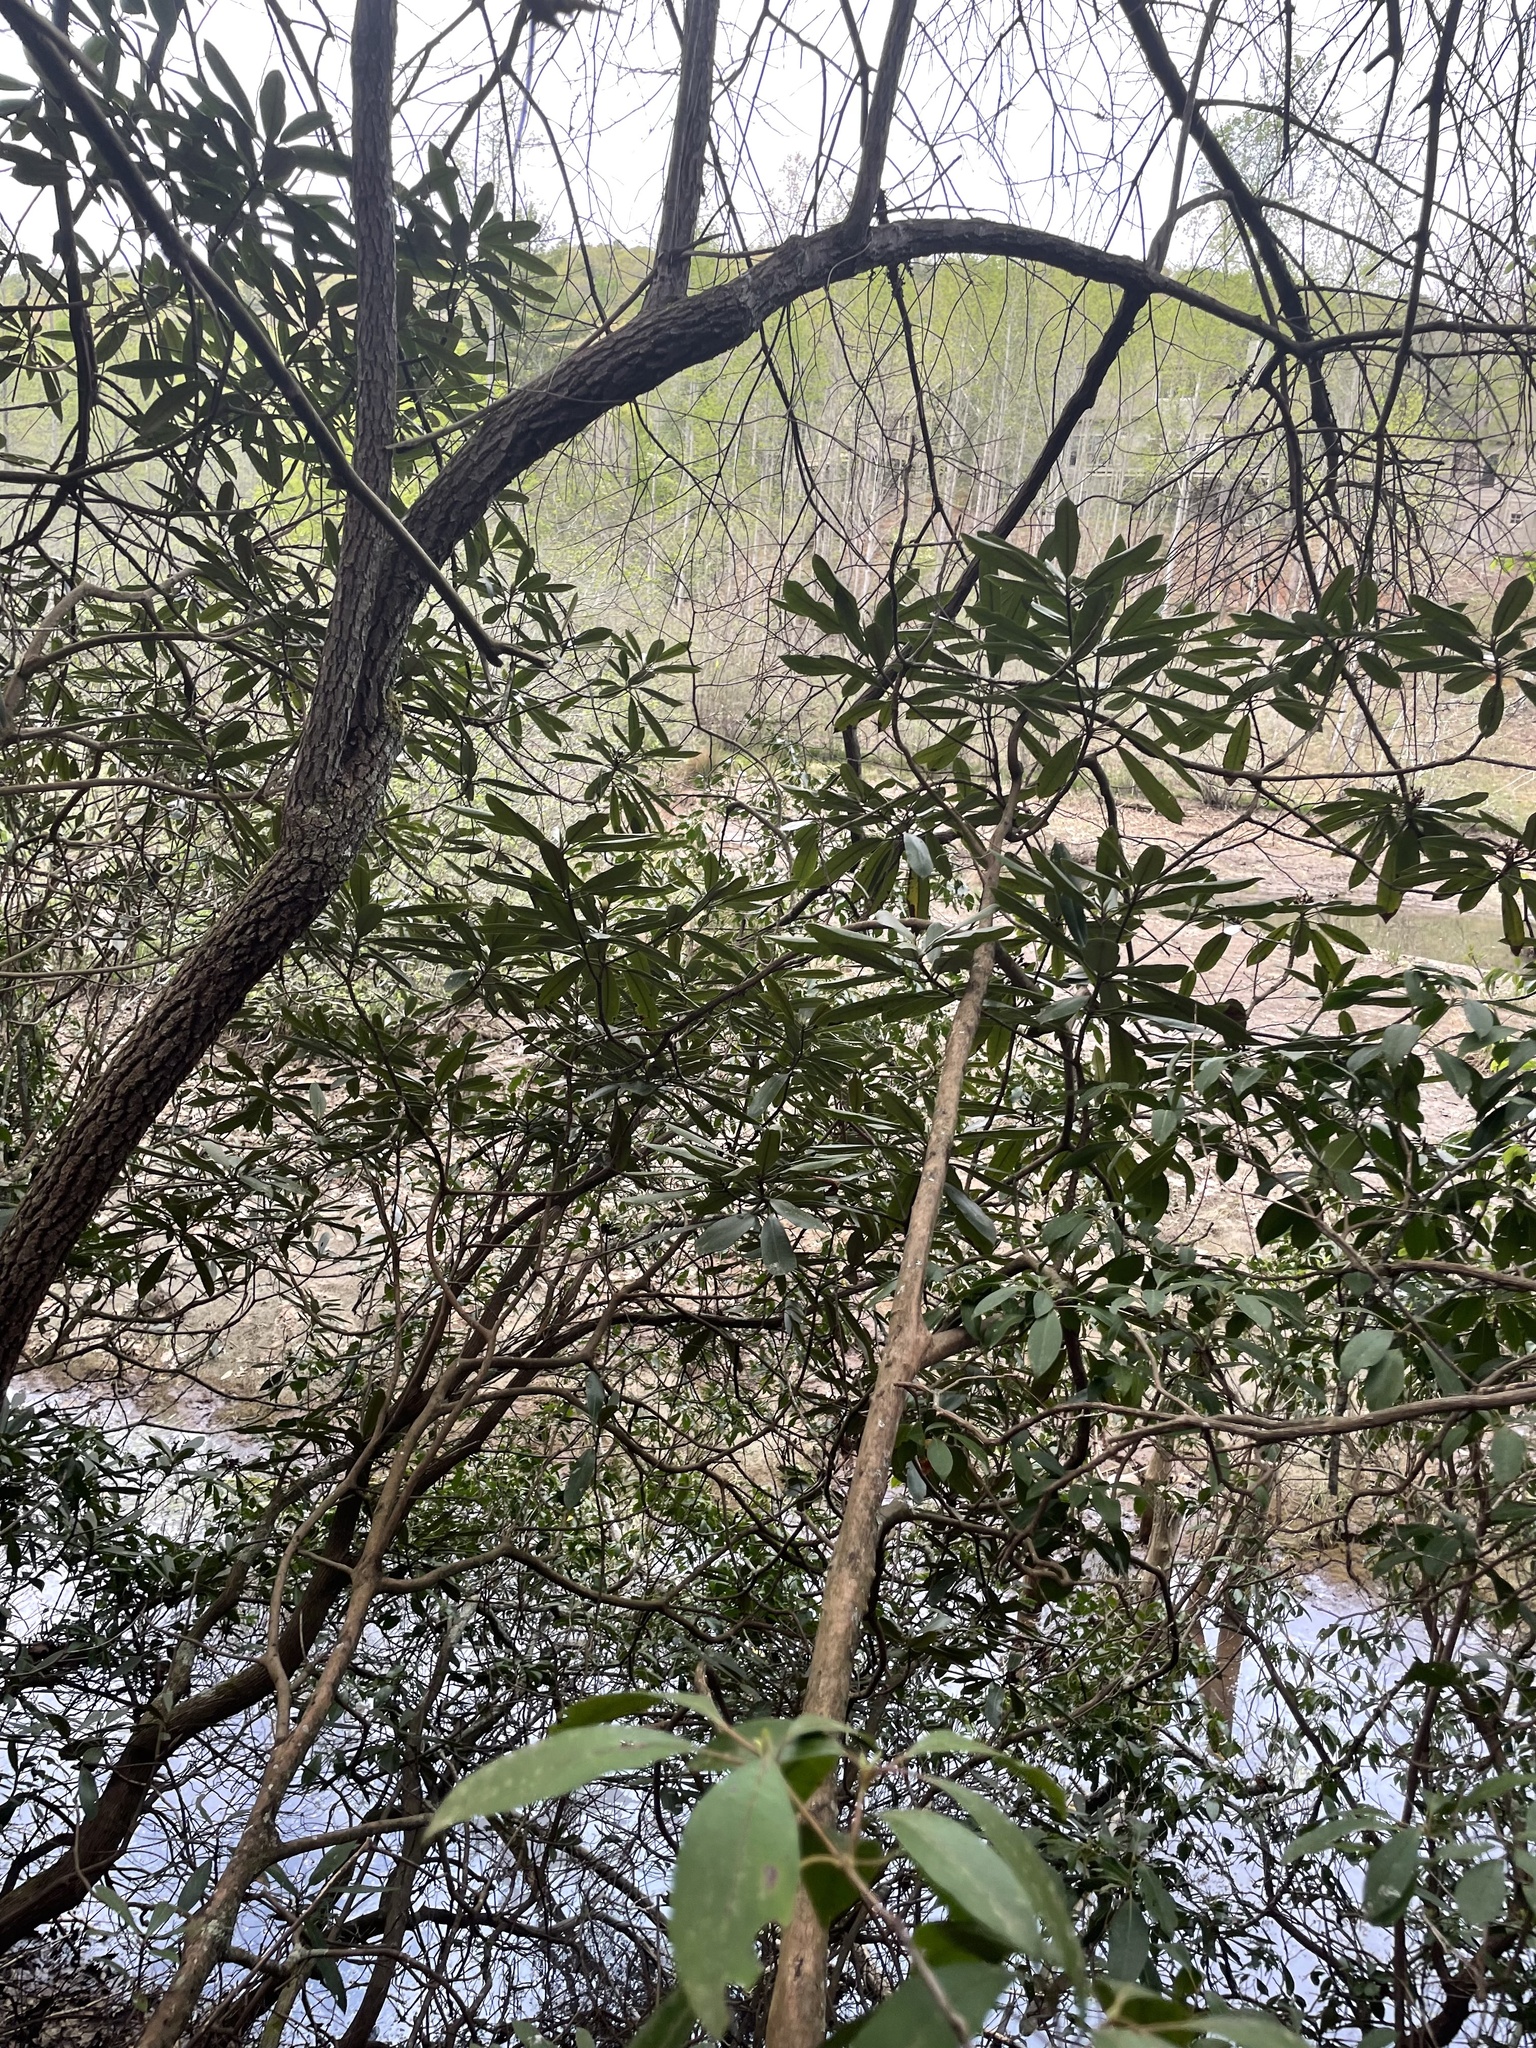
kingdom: Plantae
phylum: Tracheophyta
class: Magnoliopsida
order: Ericales
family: Ericaceae
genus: Rhododendron
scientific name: Rhododendron maximum
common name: Great rhododendron
